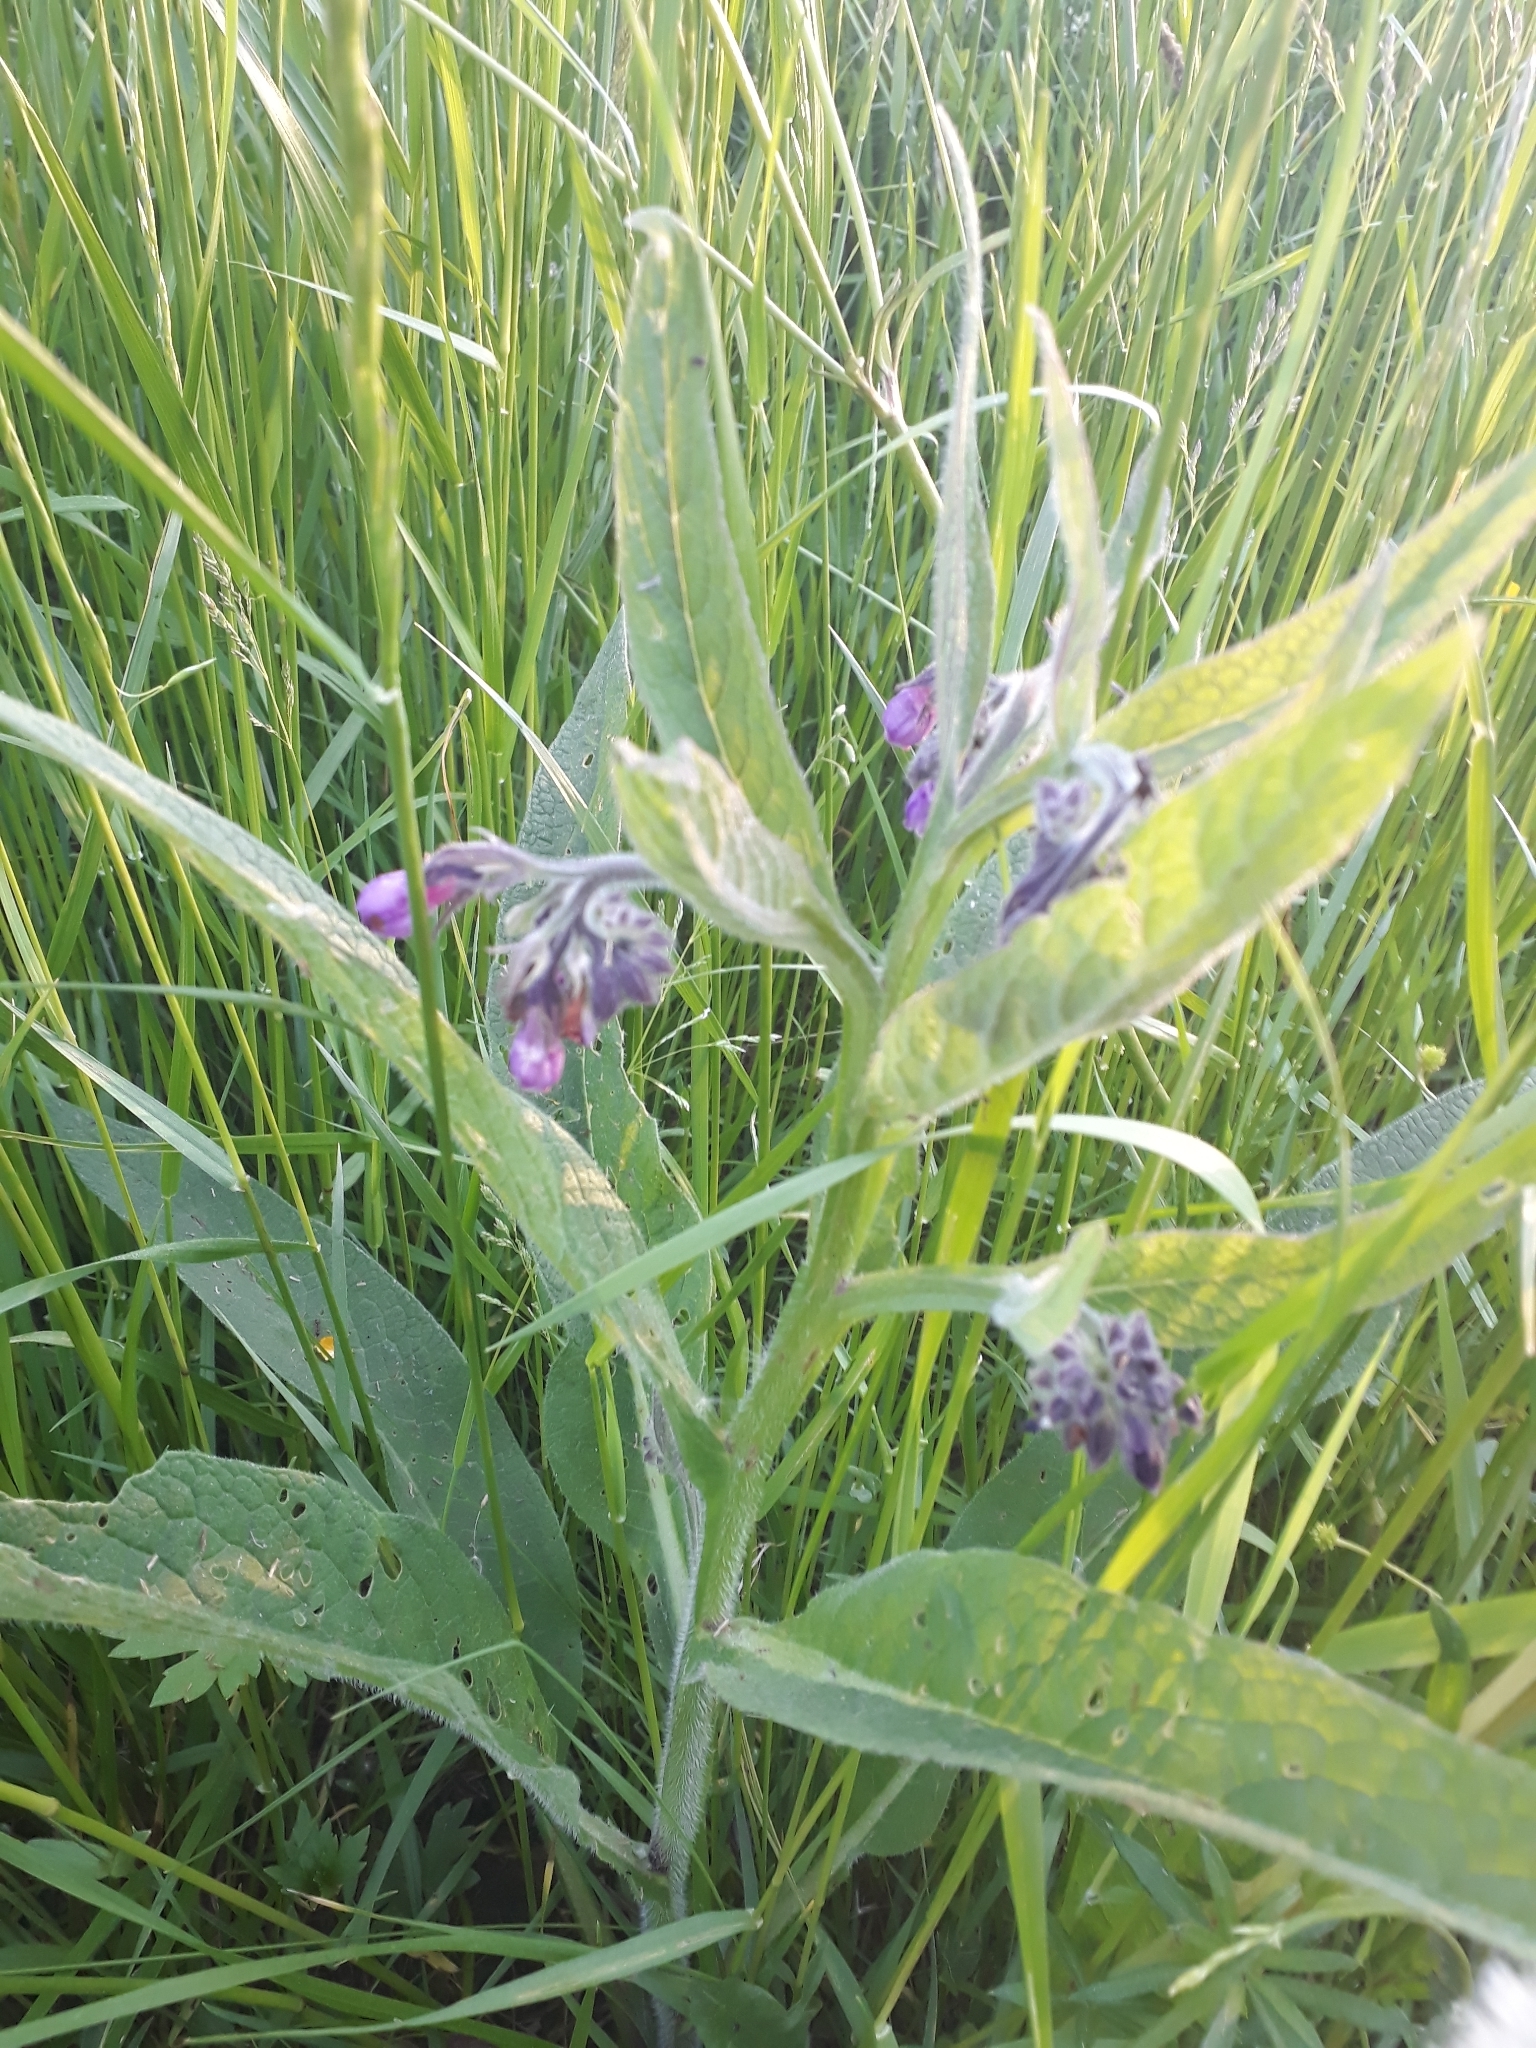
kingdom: Plantae
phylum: Tracheophyta
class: Magnoliopsida
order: Boraginales
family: Boraginaceae
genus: Symphytum
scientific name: Symphytum officinale
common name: Common comfrey
